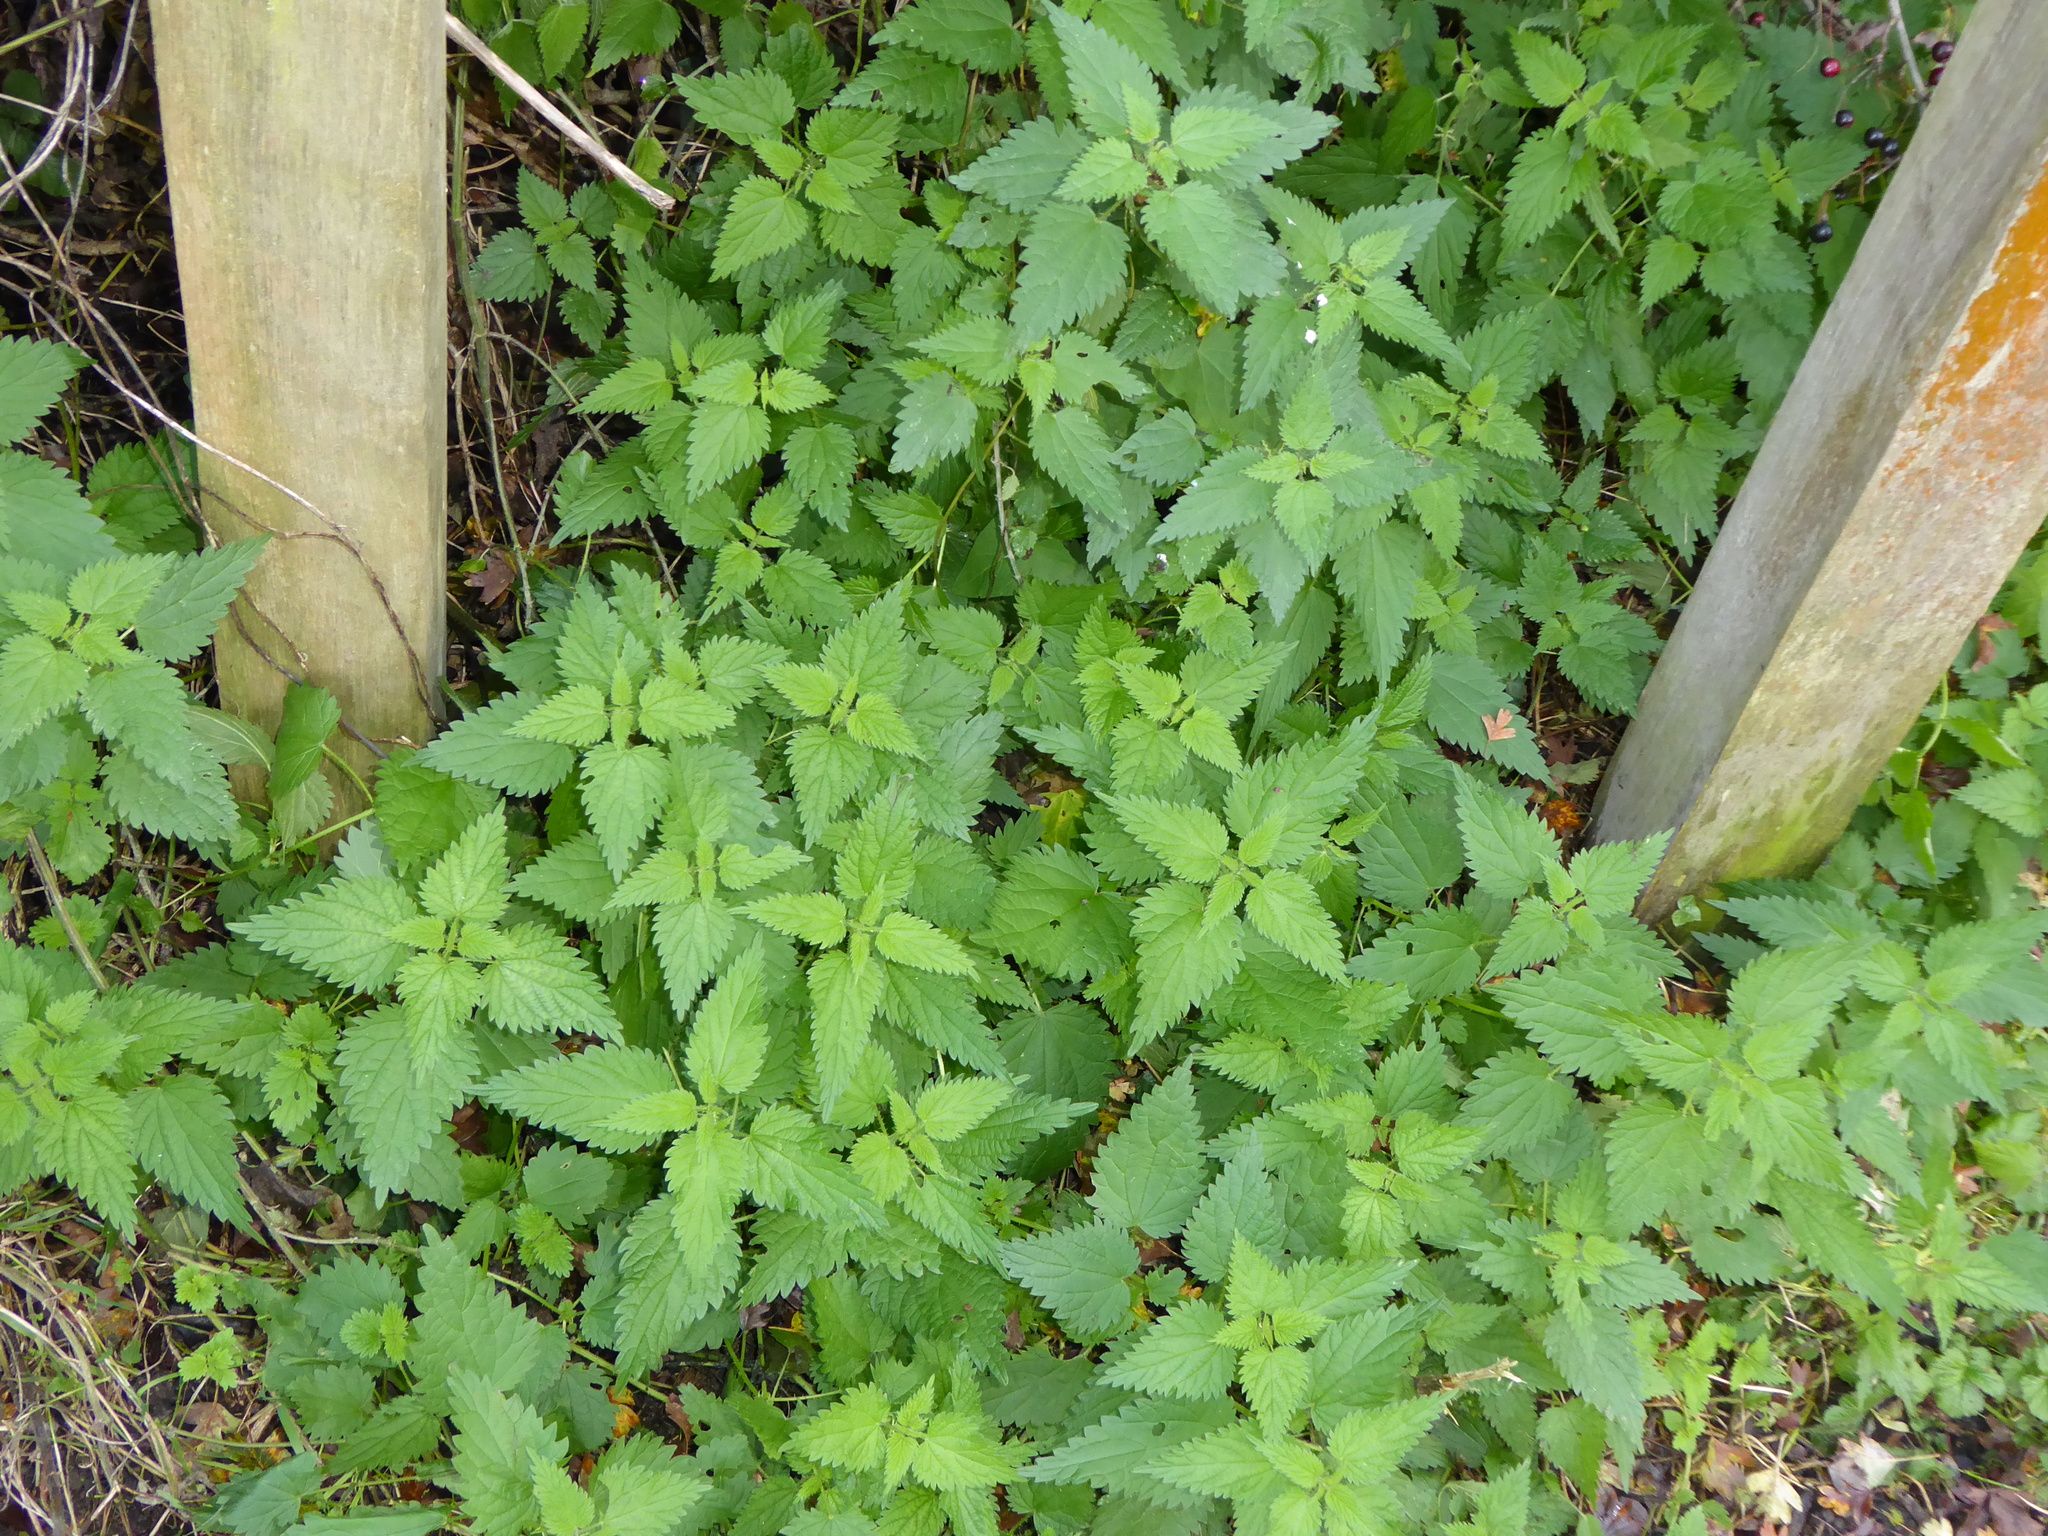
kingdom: Plantae
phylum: Tracheophyta
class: Magnoliopsida
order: Rosales
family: Urticaceae
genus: Urtica
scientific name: Urtica dioica
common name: Common nettle
